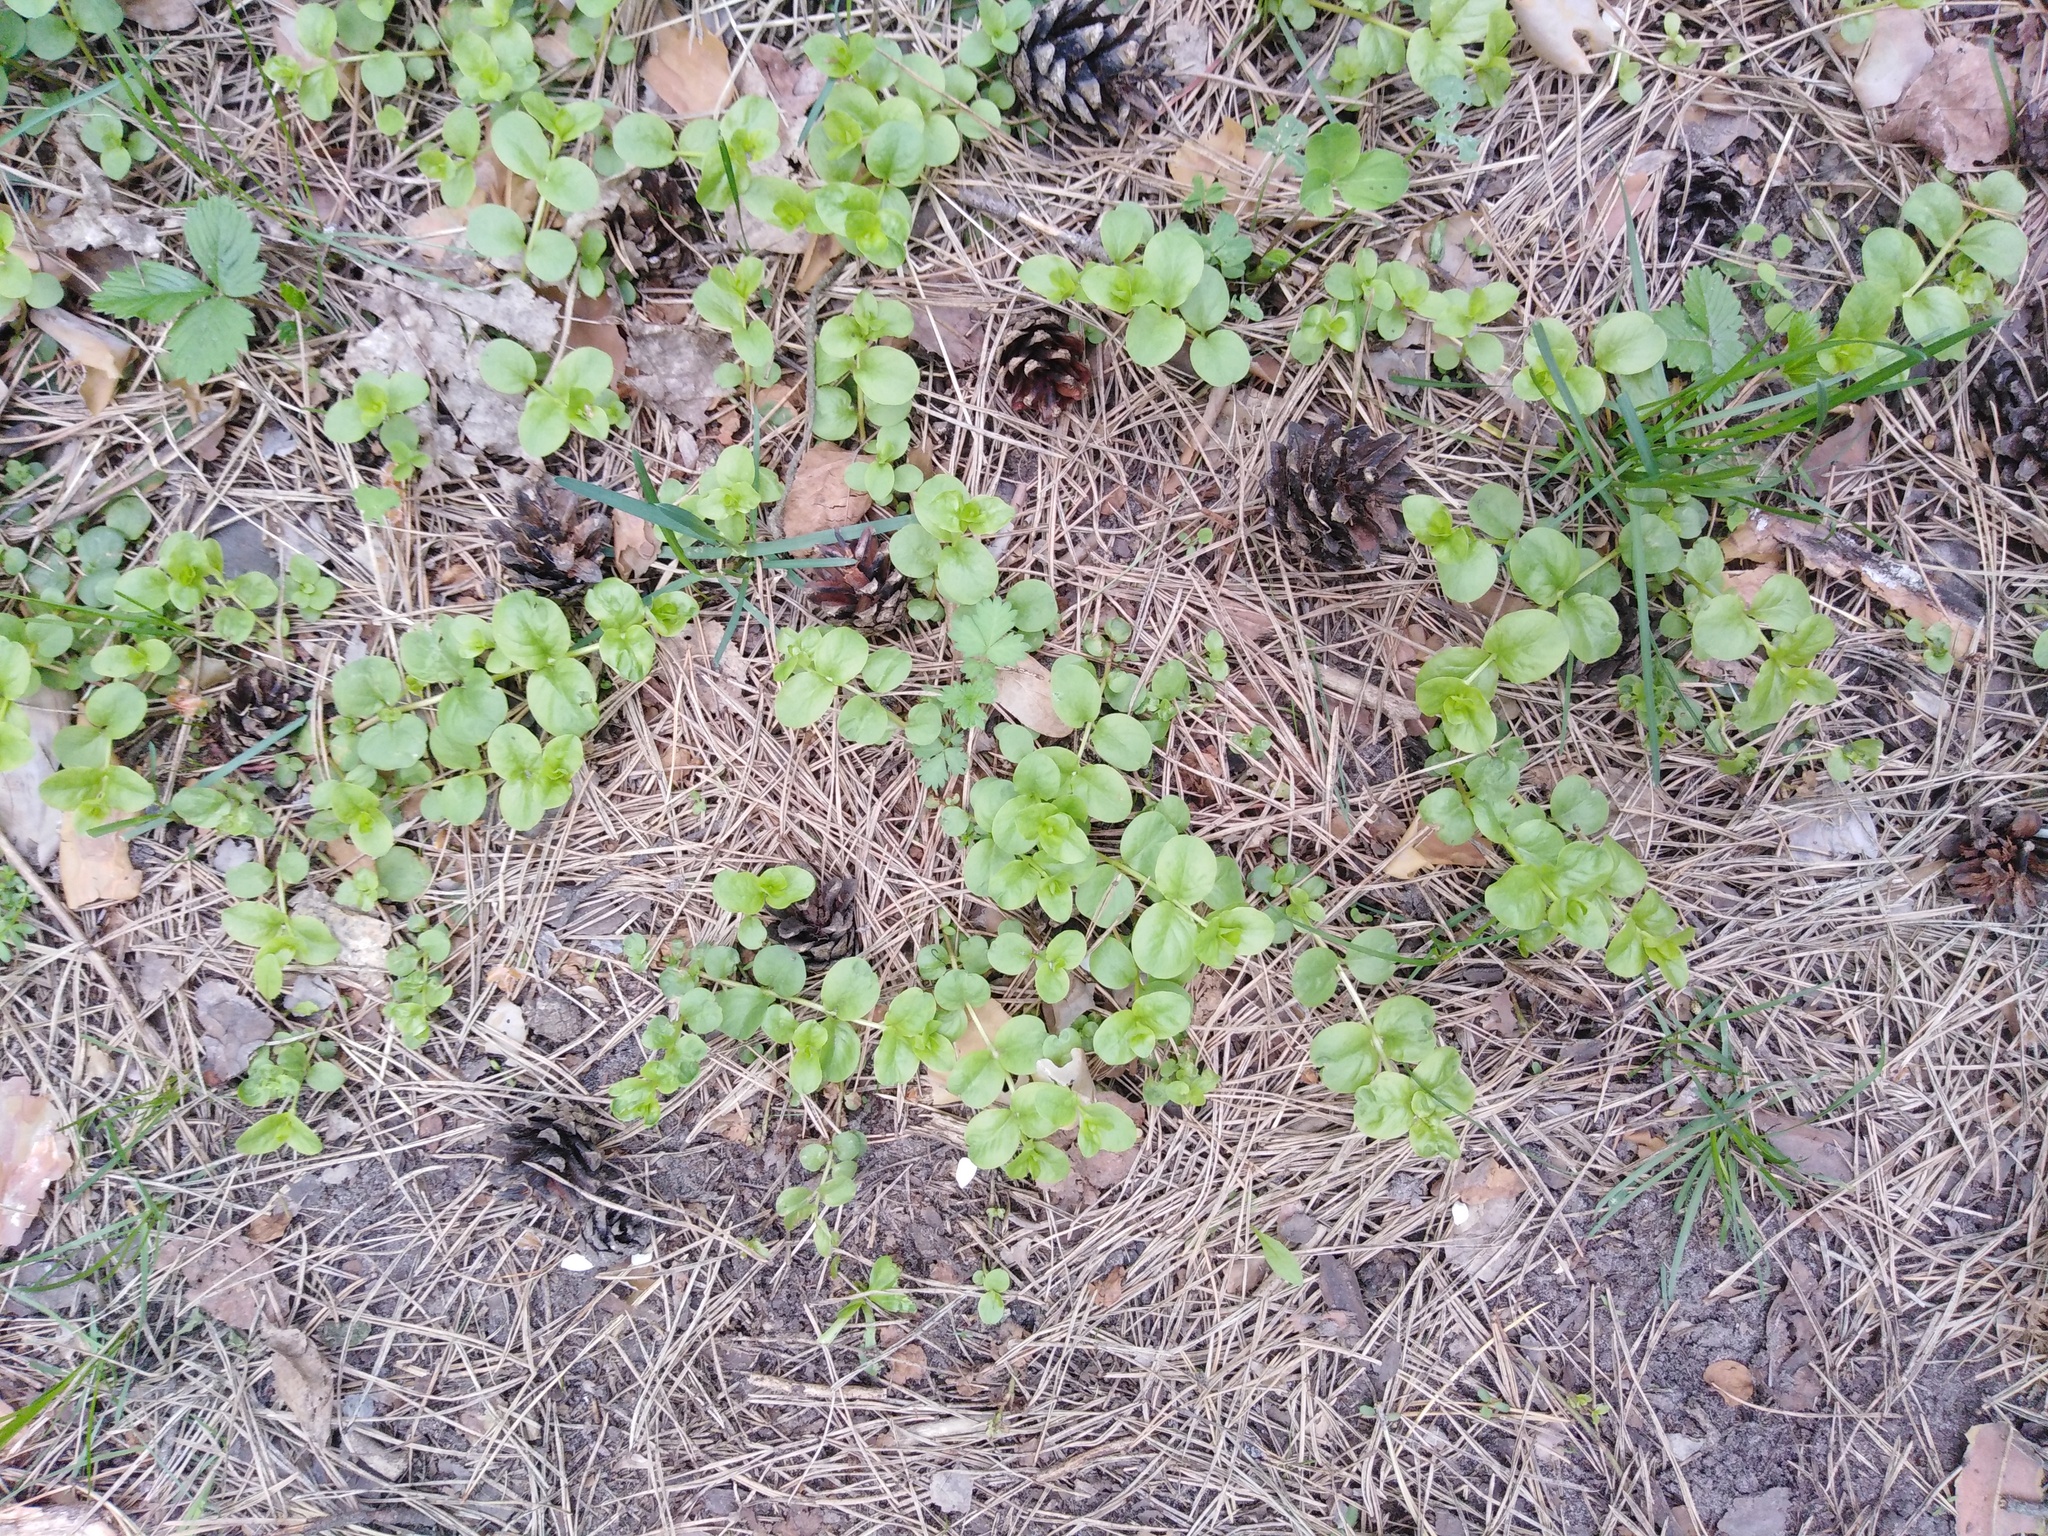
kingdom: Plantae
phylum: Tracheophyta
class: Magnoliopsida
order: Ericales
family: Primulaceae
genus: Lysimachia
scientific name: Lysimachia nummularia
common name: Moneywort
